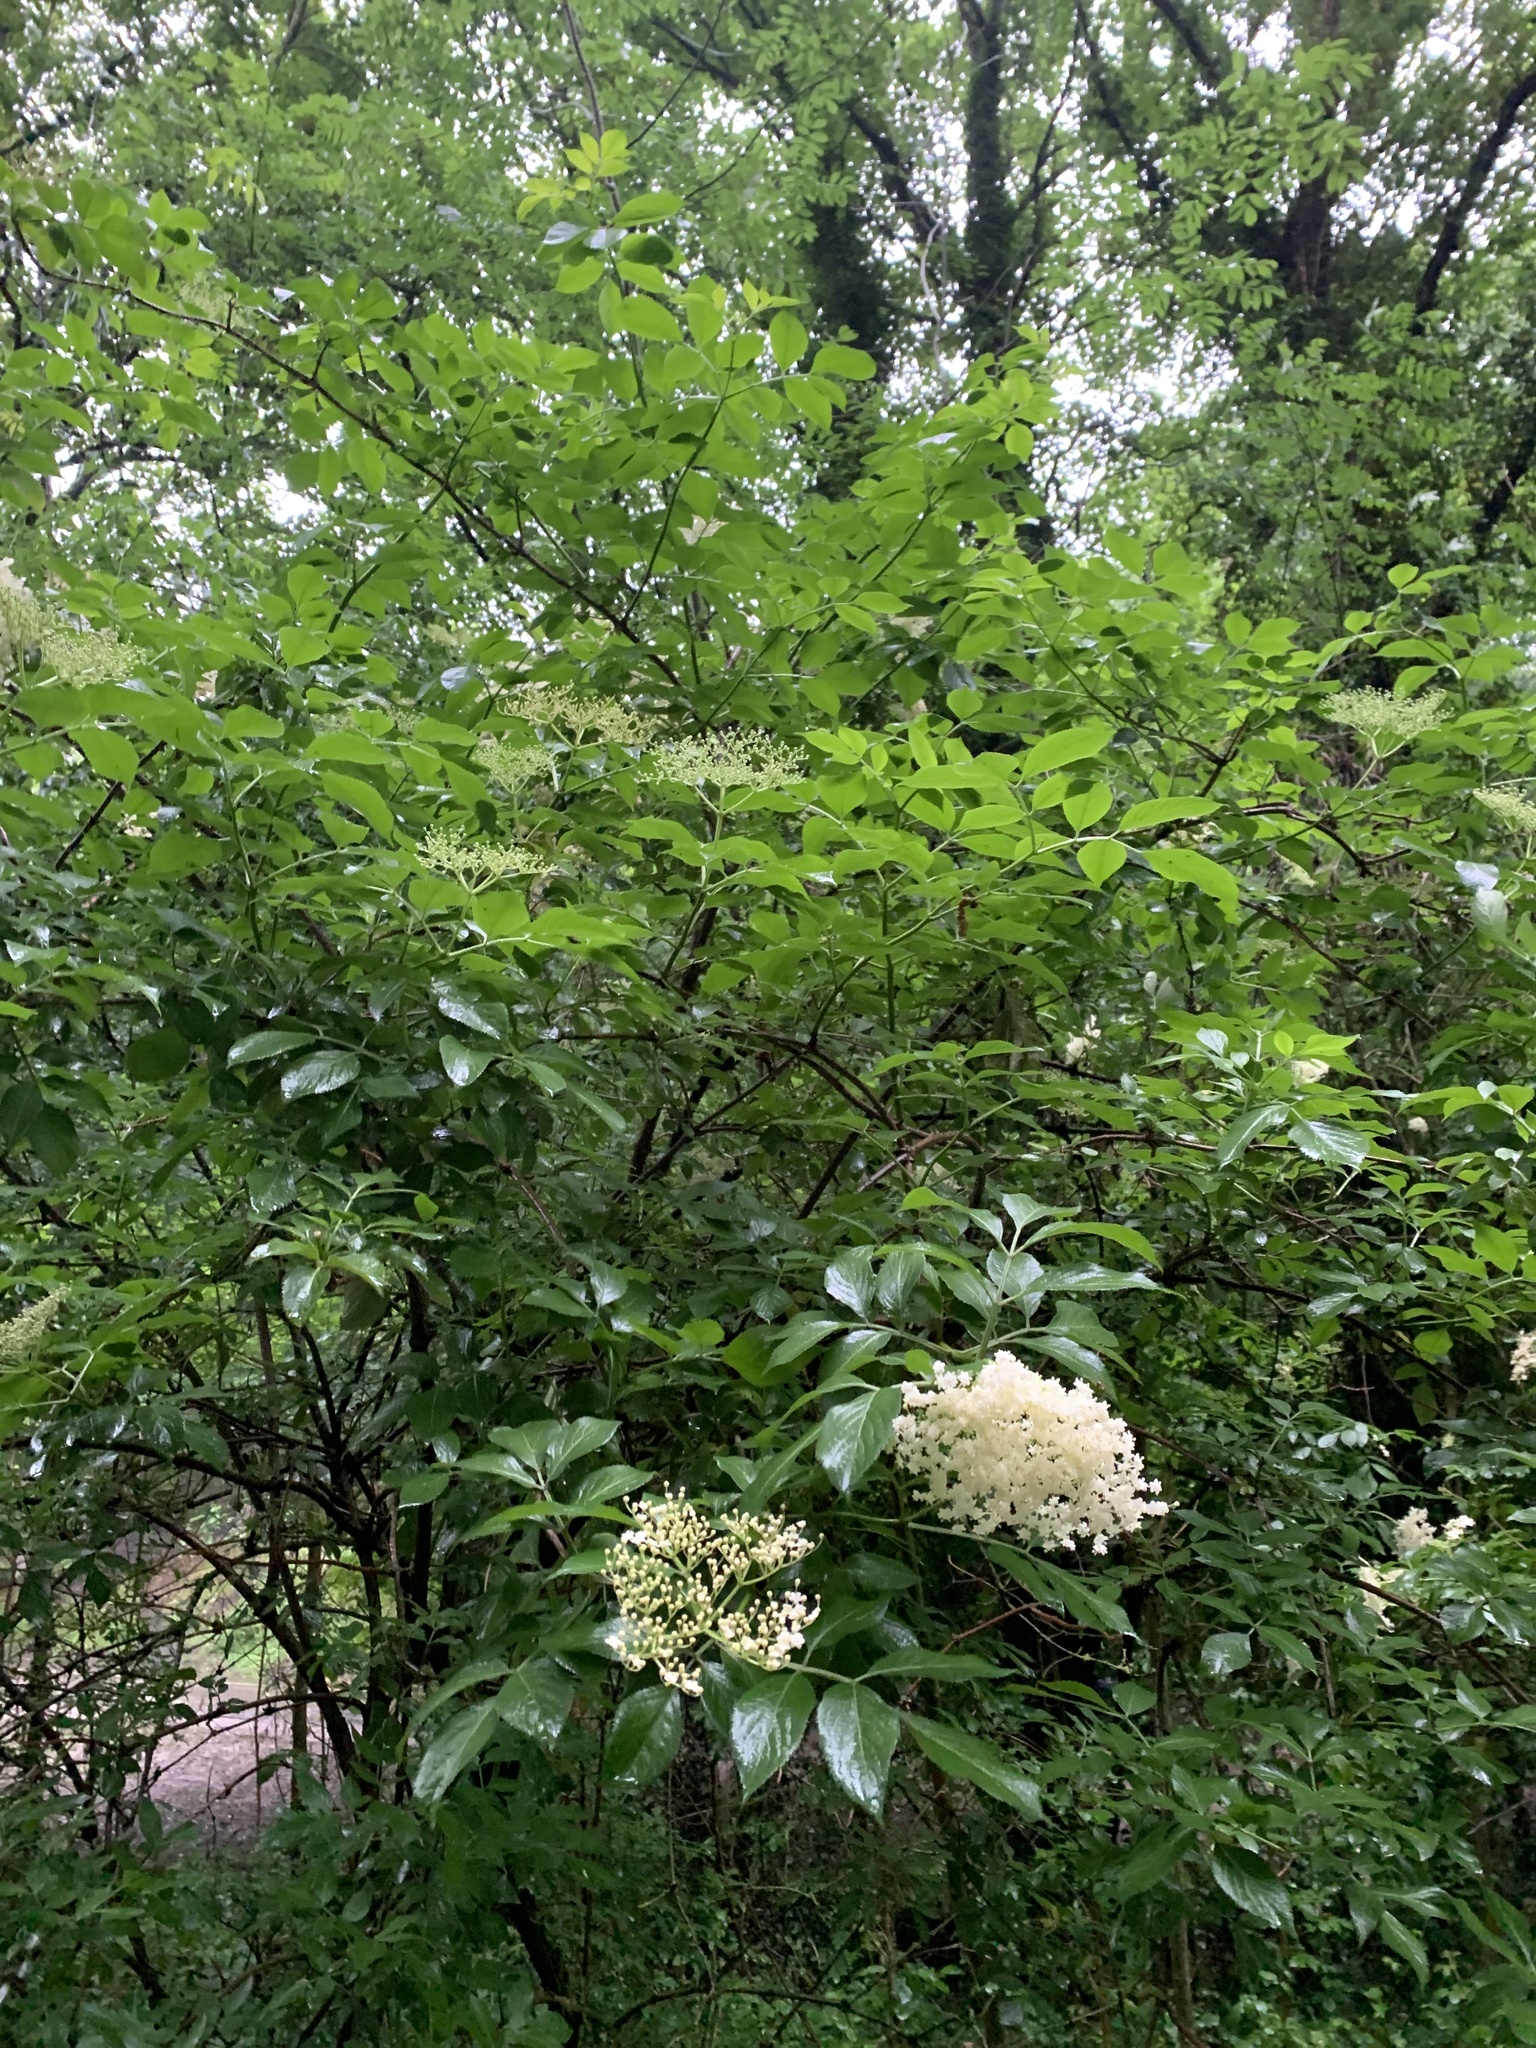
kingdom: Plantae
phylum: Tracheophyta
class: Magnoliopsida
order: Dipsacales
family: Viburnaceae
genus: Sambucus
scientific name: Sambucus nigra
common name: Elder
